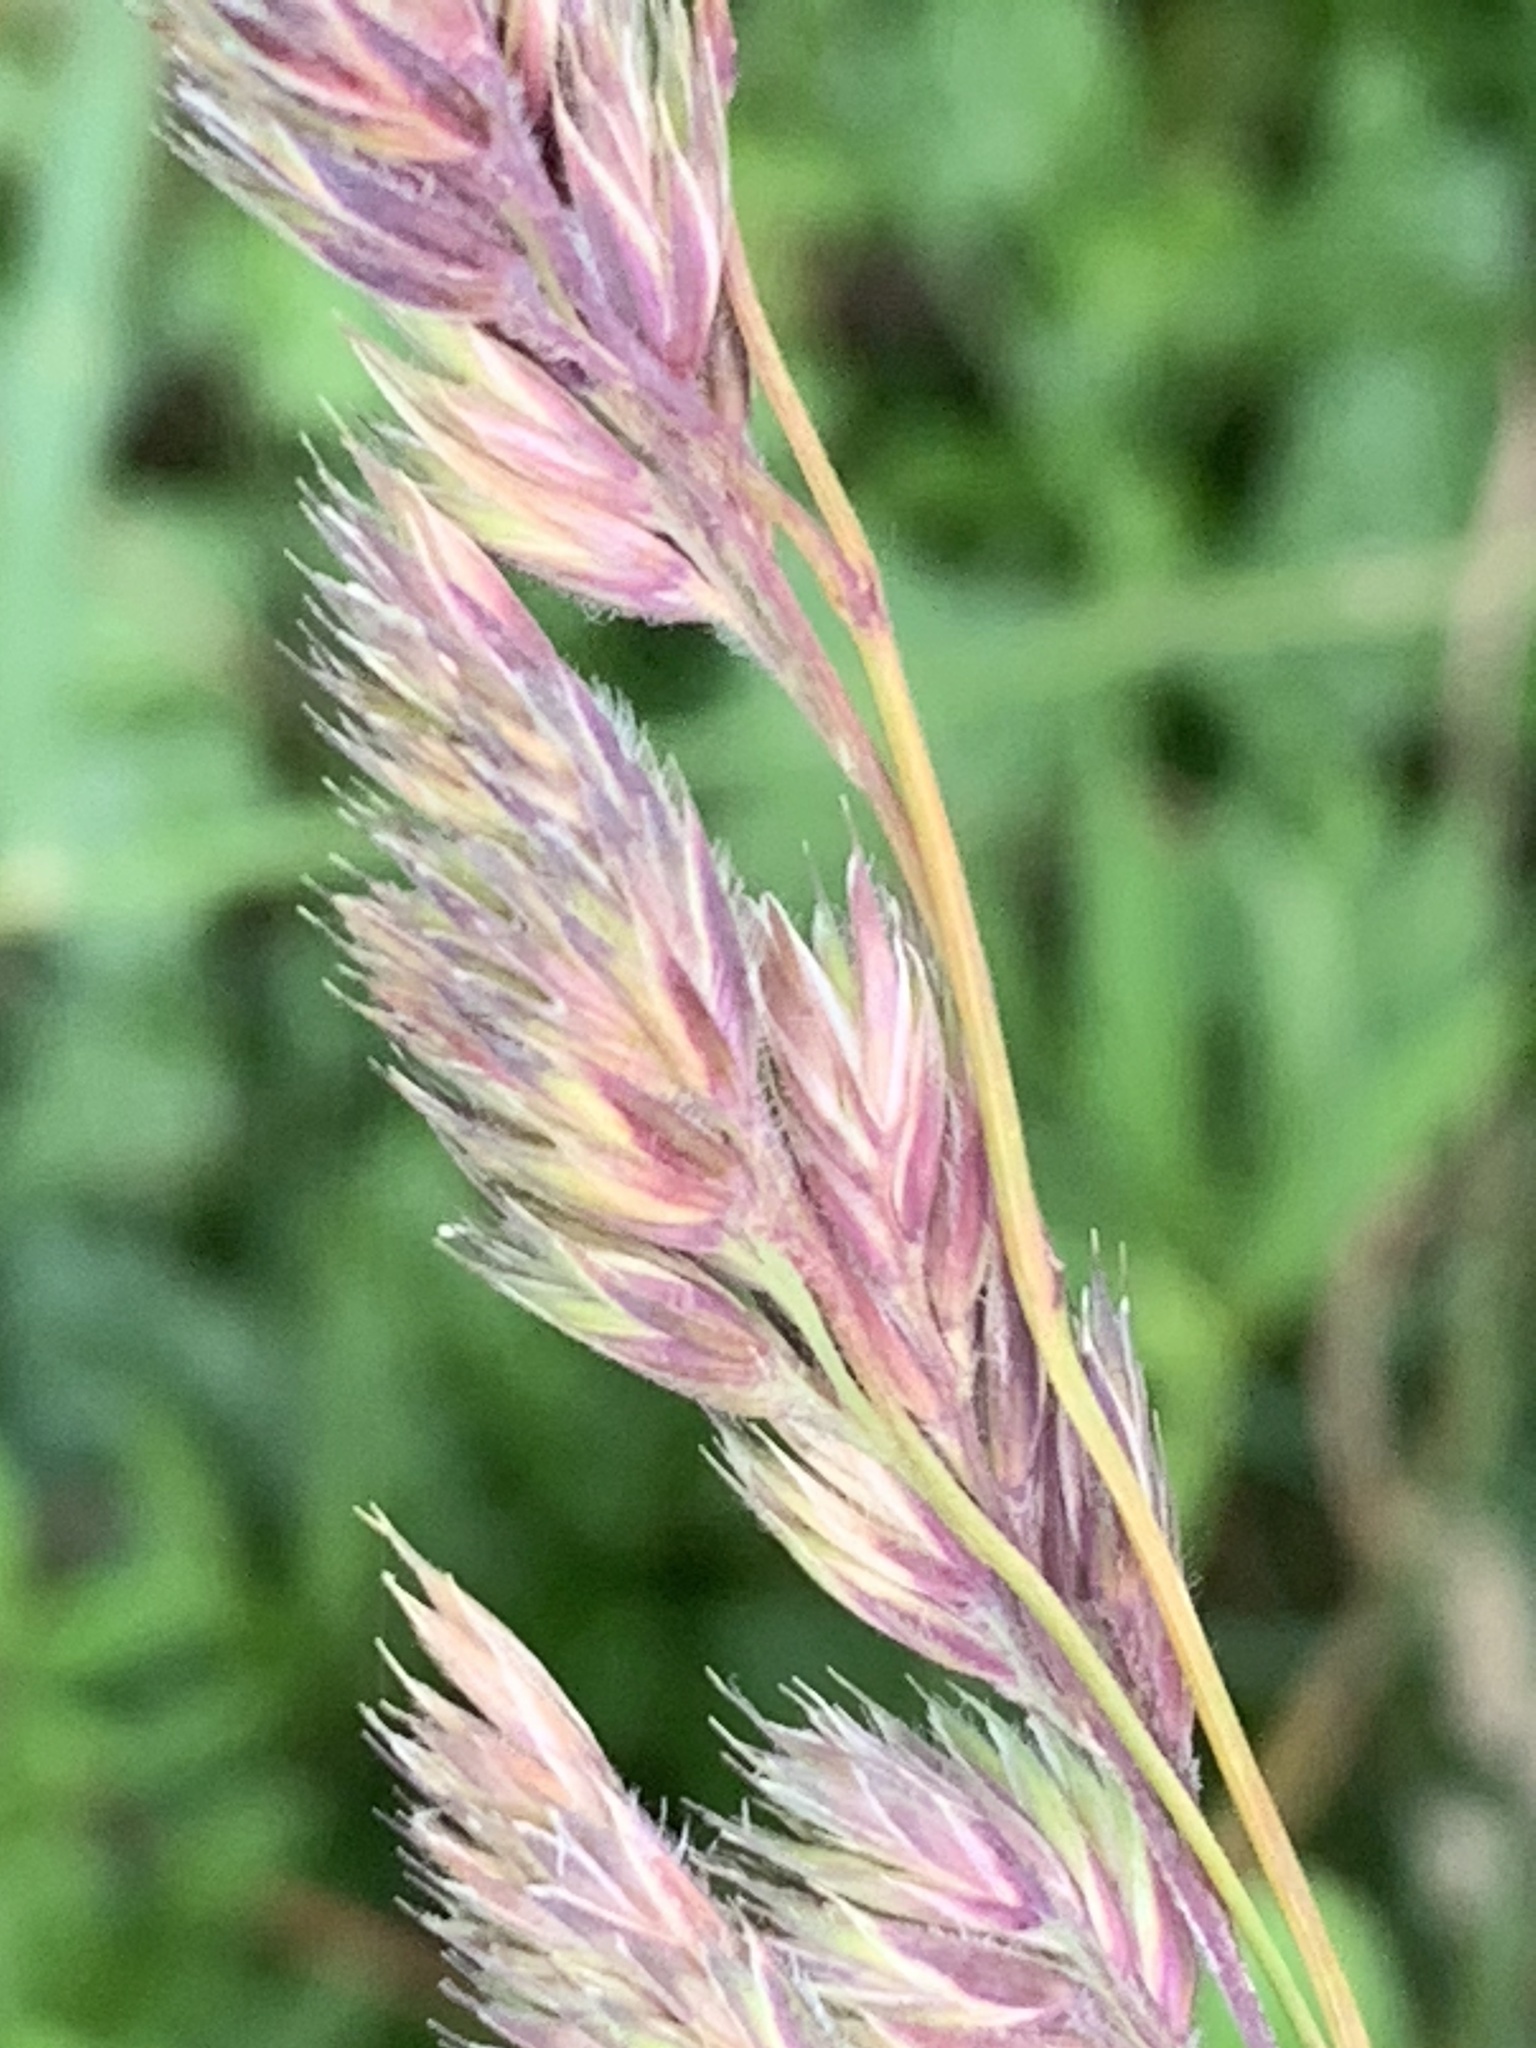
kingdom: Plantae
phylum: Tracheophyta
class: Liliopsida
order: Poales
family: Poaceae
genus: Dactylis
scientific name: Dactylis glomerata
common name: Orchardgrass
